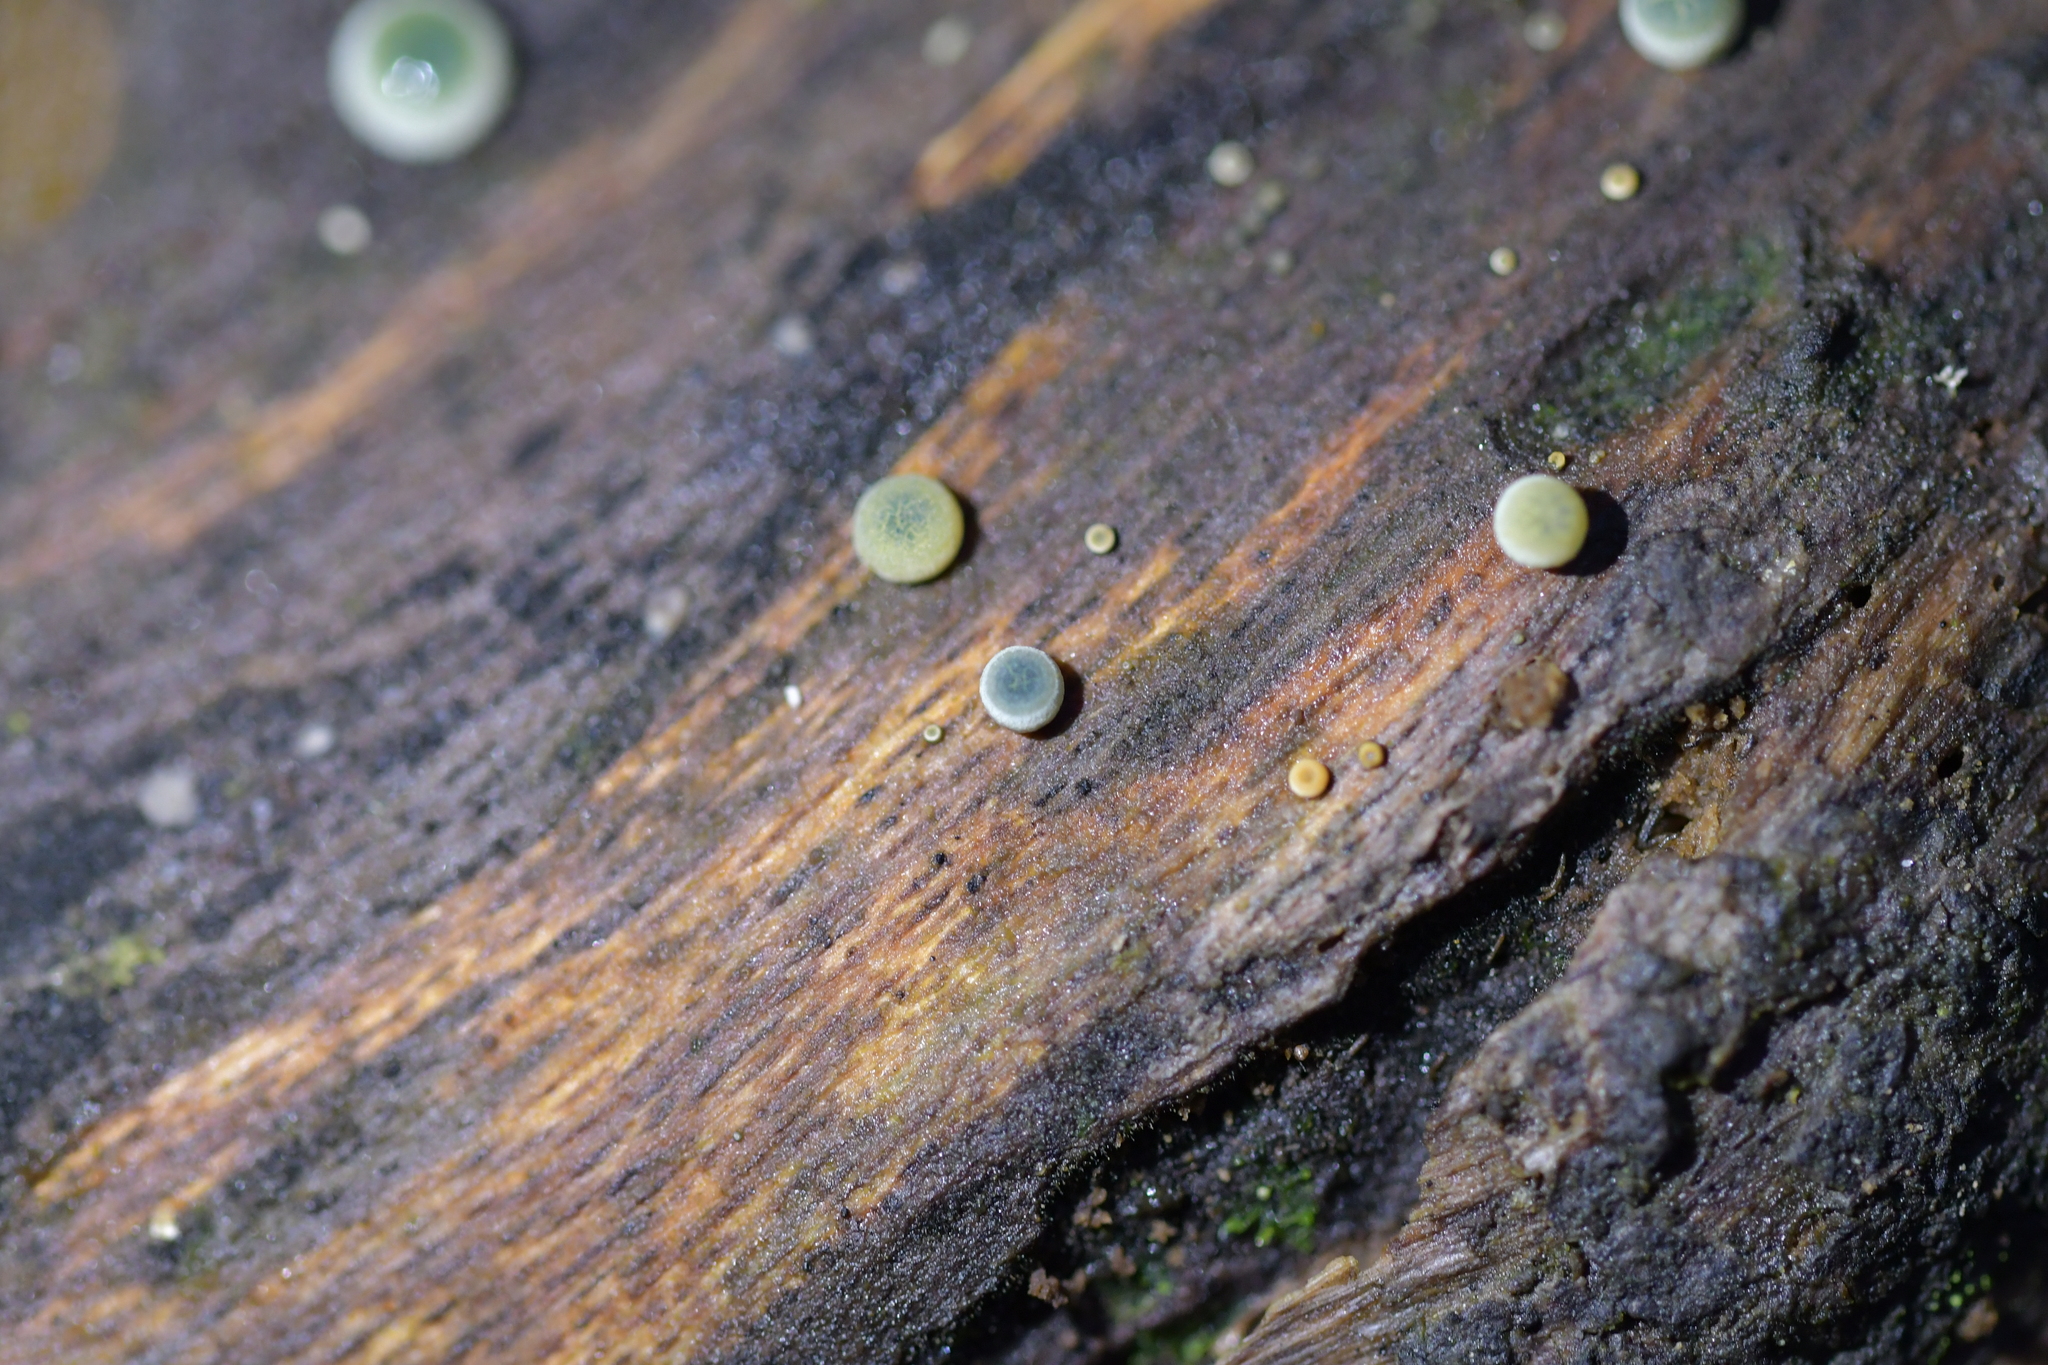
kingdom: Fungi
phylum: Basidiomycota
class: Agaricomycetes
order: Agaricales
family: Mycenaceae
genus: Mycena
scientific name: Mycena interrupta
